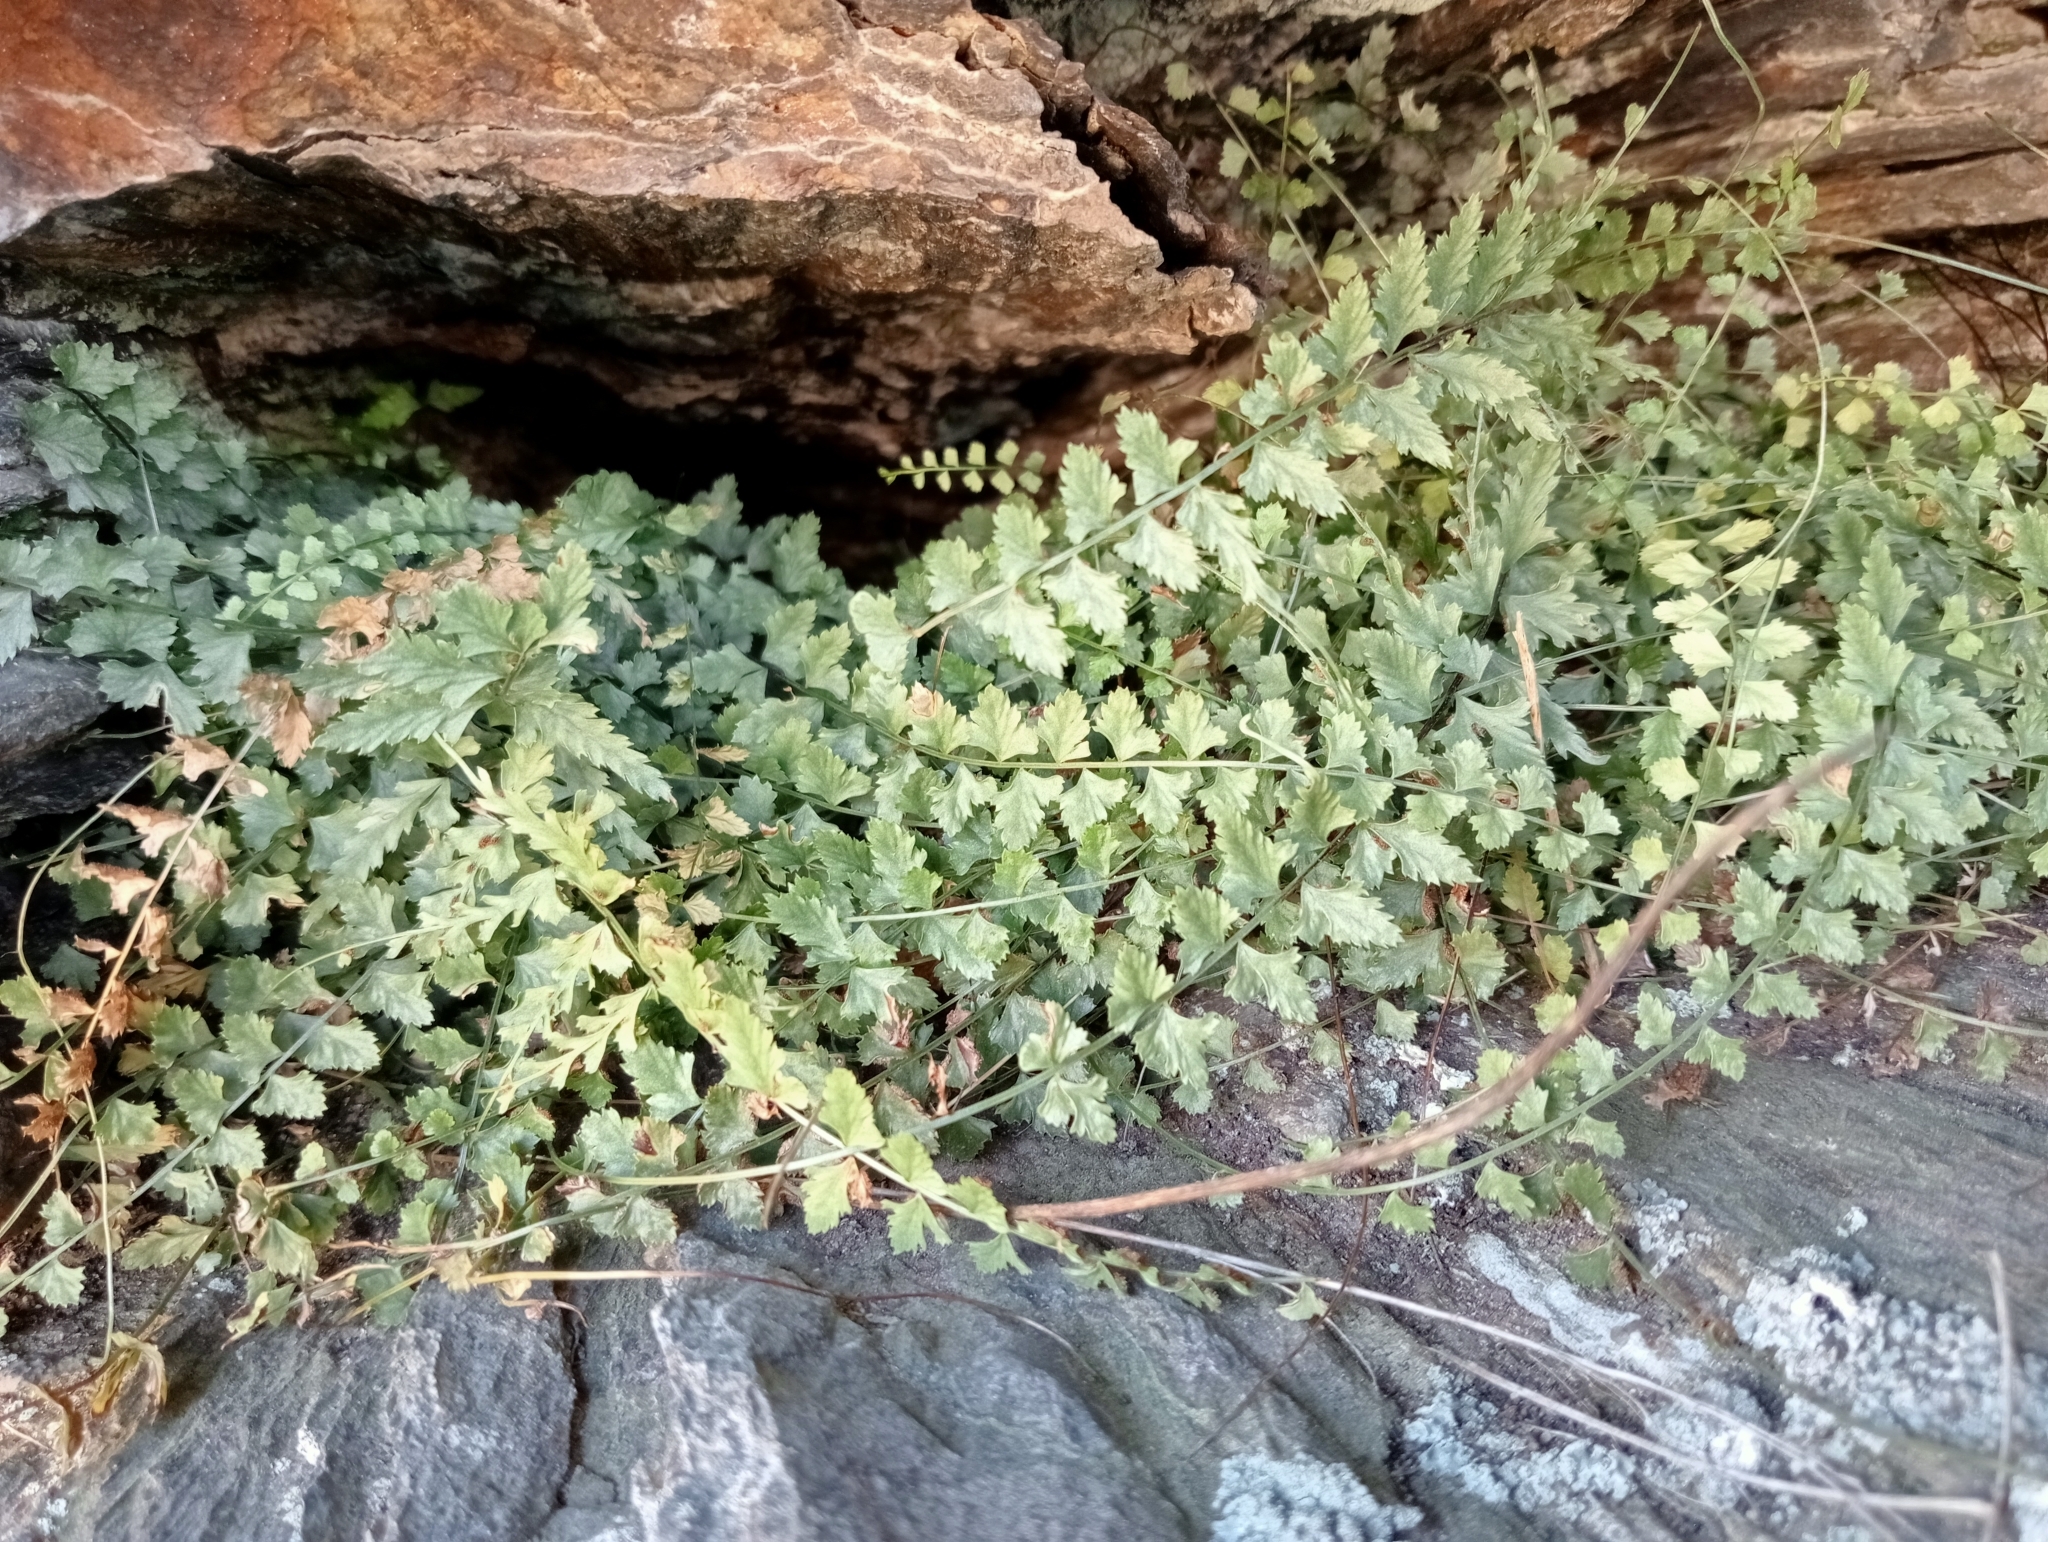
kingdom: Plantae
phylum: Tracheophyta
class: Polypodiopsida
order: Polypodiales
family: Aspleniaceae
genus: Asplenium
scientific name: Asplenium flabellifolium
